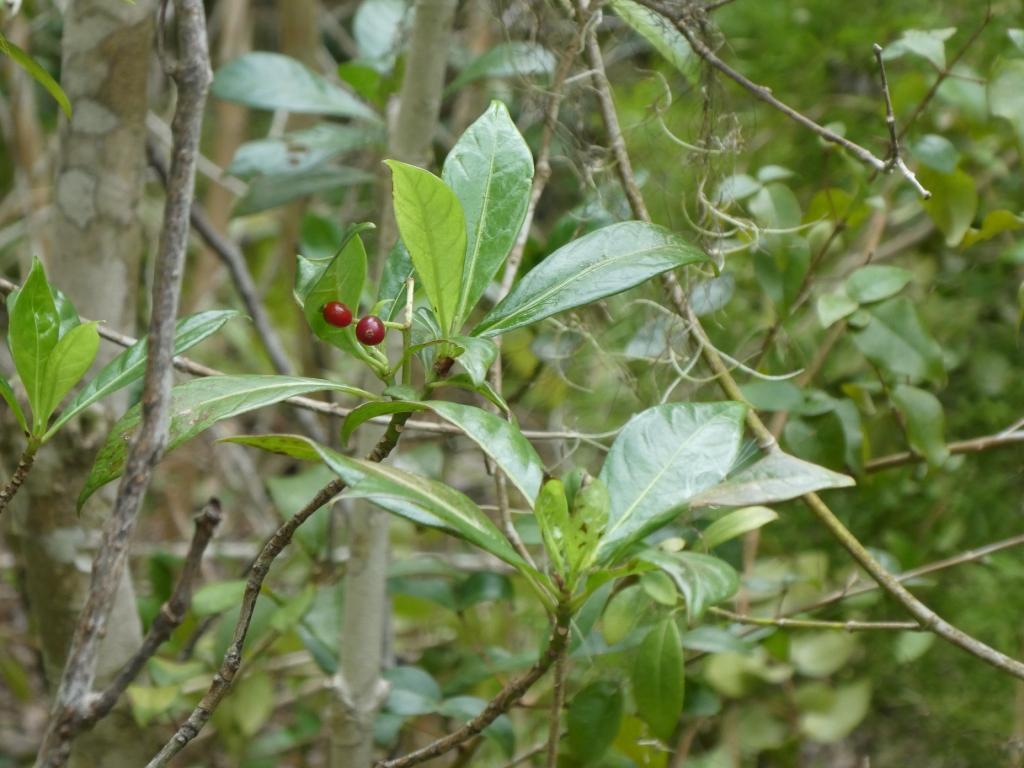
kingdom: Plantae
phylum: Tracheophyta
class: Magnoliopsida
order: Gentianales
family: Rubiaceae
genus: Psychotria
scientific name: Psychotria ligustrifolia
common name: Bahama wild coffee
